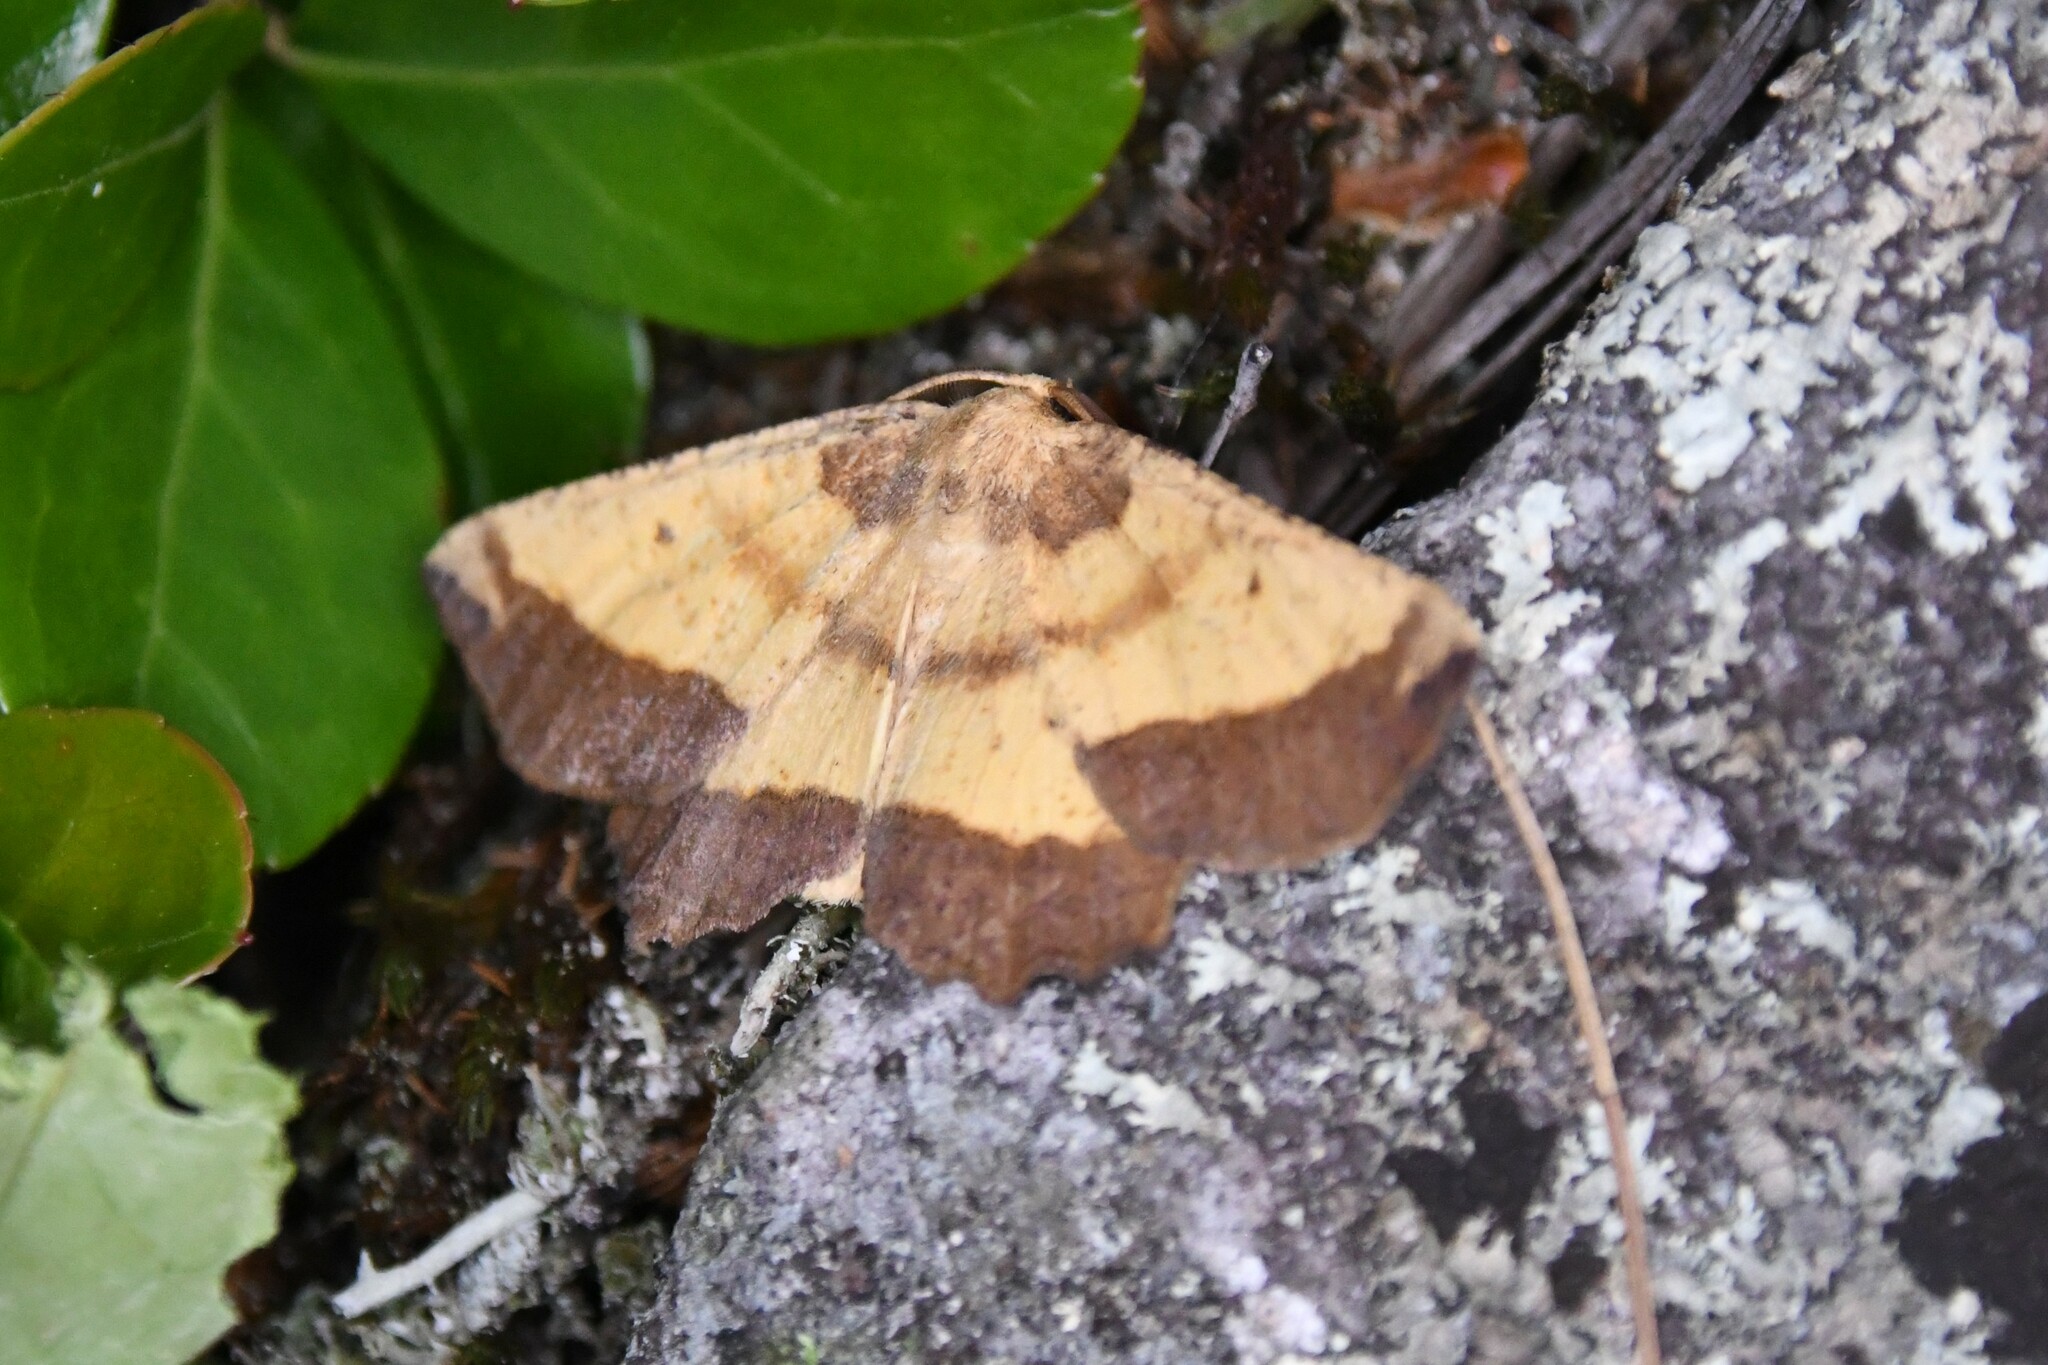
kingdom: Animalia
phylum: Arthropoda
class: Insecta
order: Lepidoptera
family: Geometridae
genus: Euchlaena
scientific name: Euchlaena serrata
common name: Saw wing
